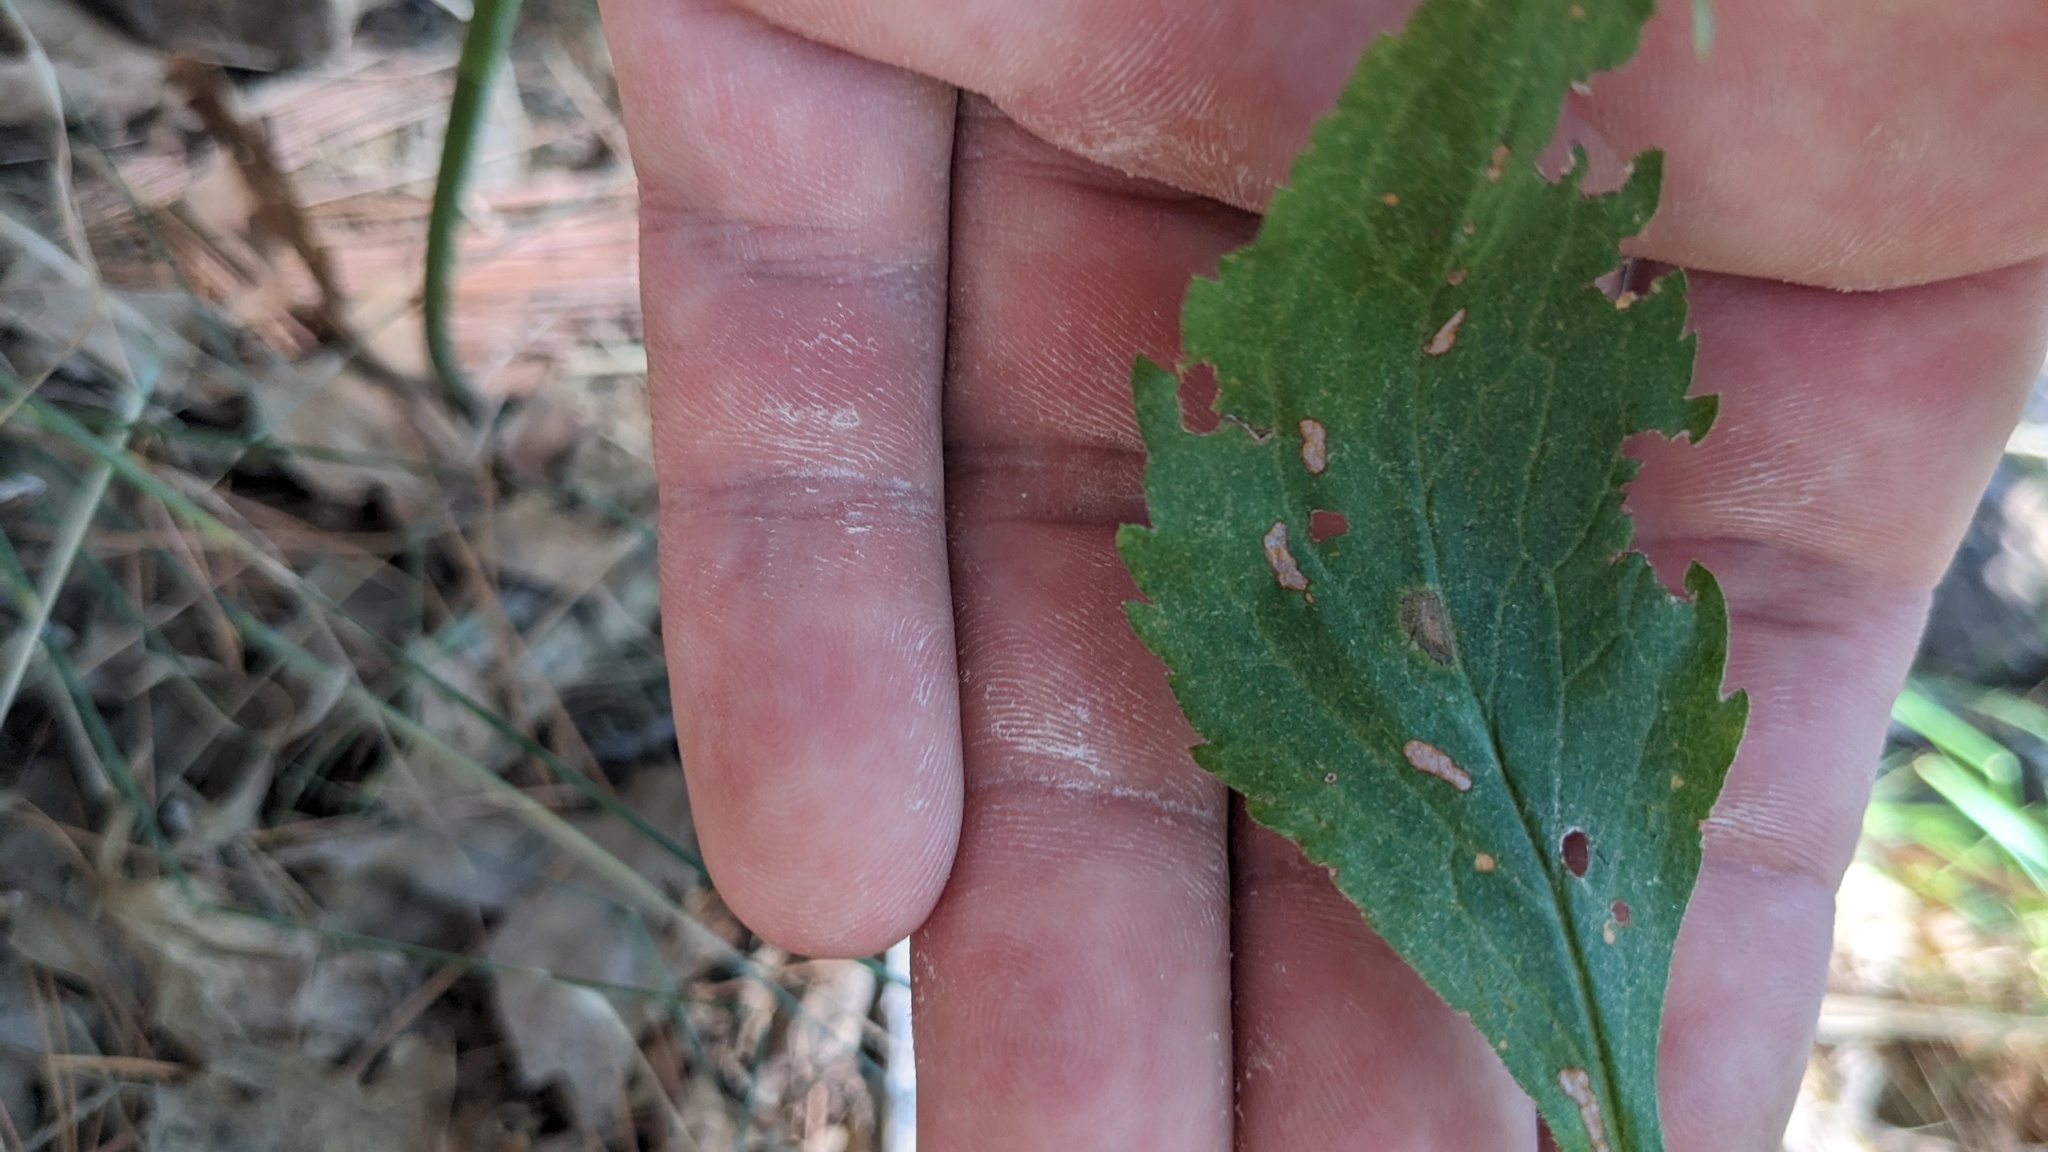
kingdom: Animalia
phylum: Arthropoda
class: Insecta
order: Diptera
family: Cecidomyiidae
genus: Asteromyia
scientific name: Asteromyia carbonifera
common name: Carbonifera goldenrod gall midge
